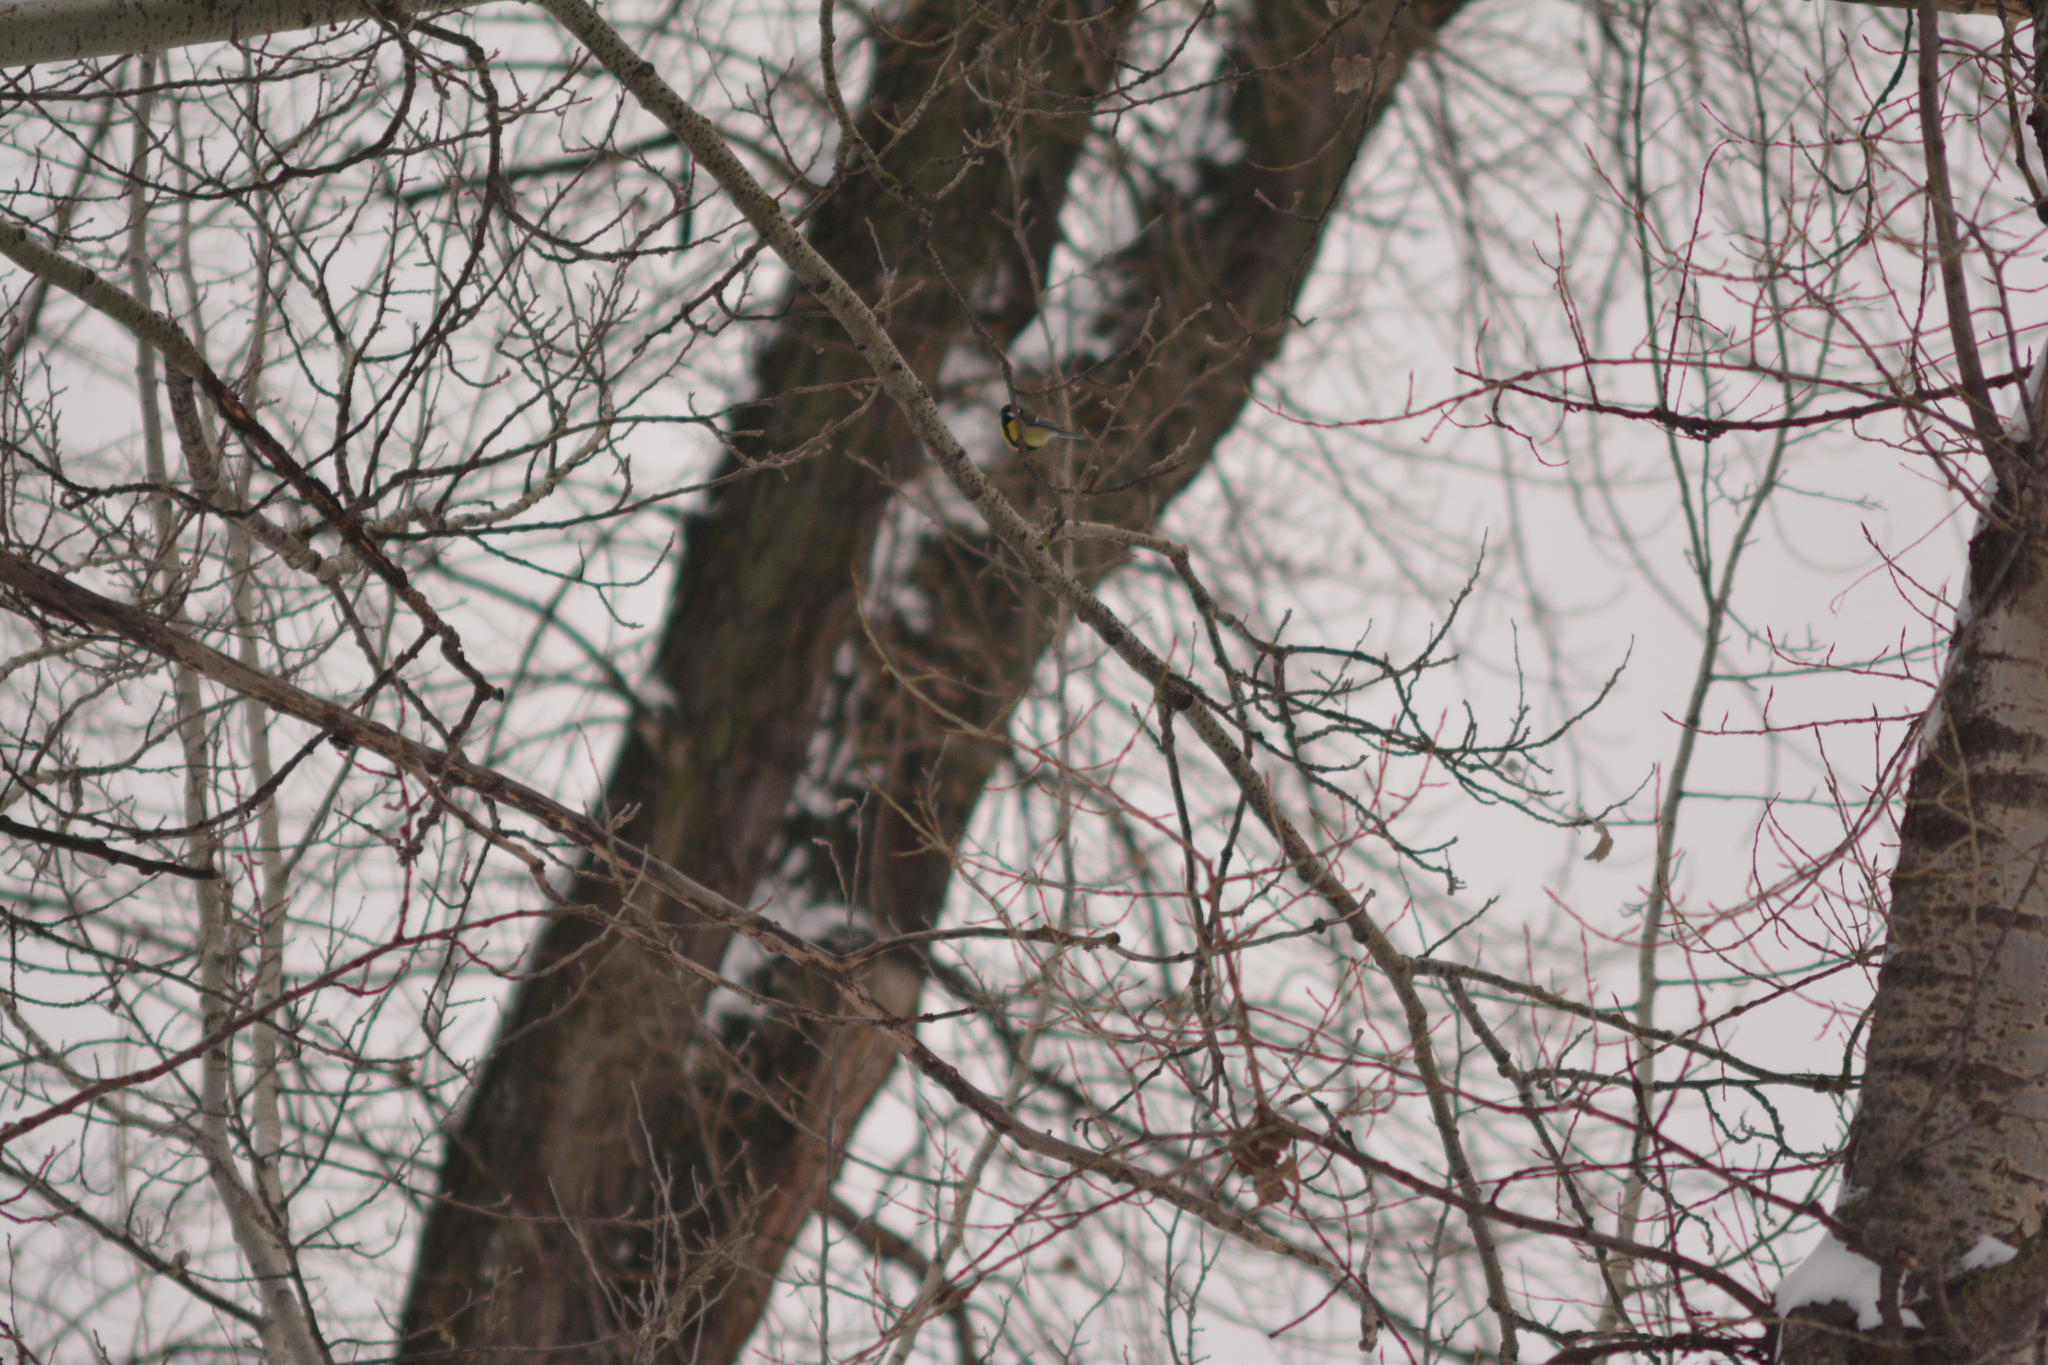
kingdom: Animalia
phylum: Chordata
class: Aves
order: Passeriformes
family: Paridae
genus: Parus
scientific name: Parus major
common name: Great tit
